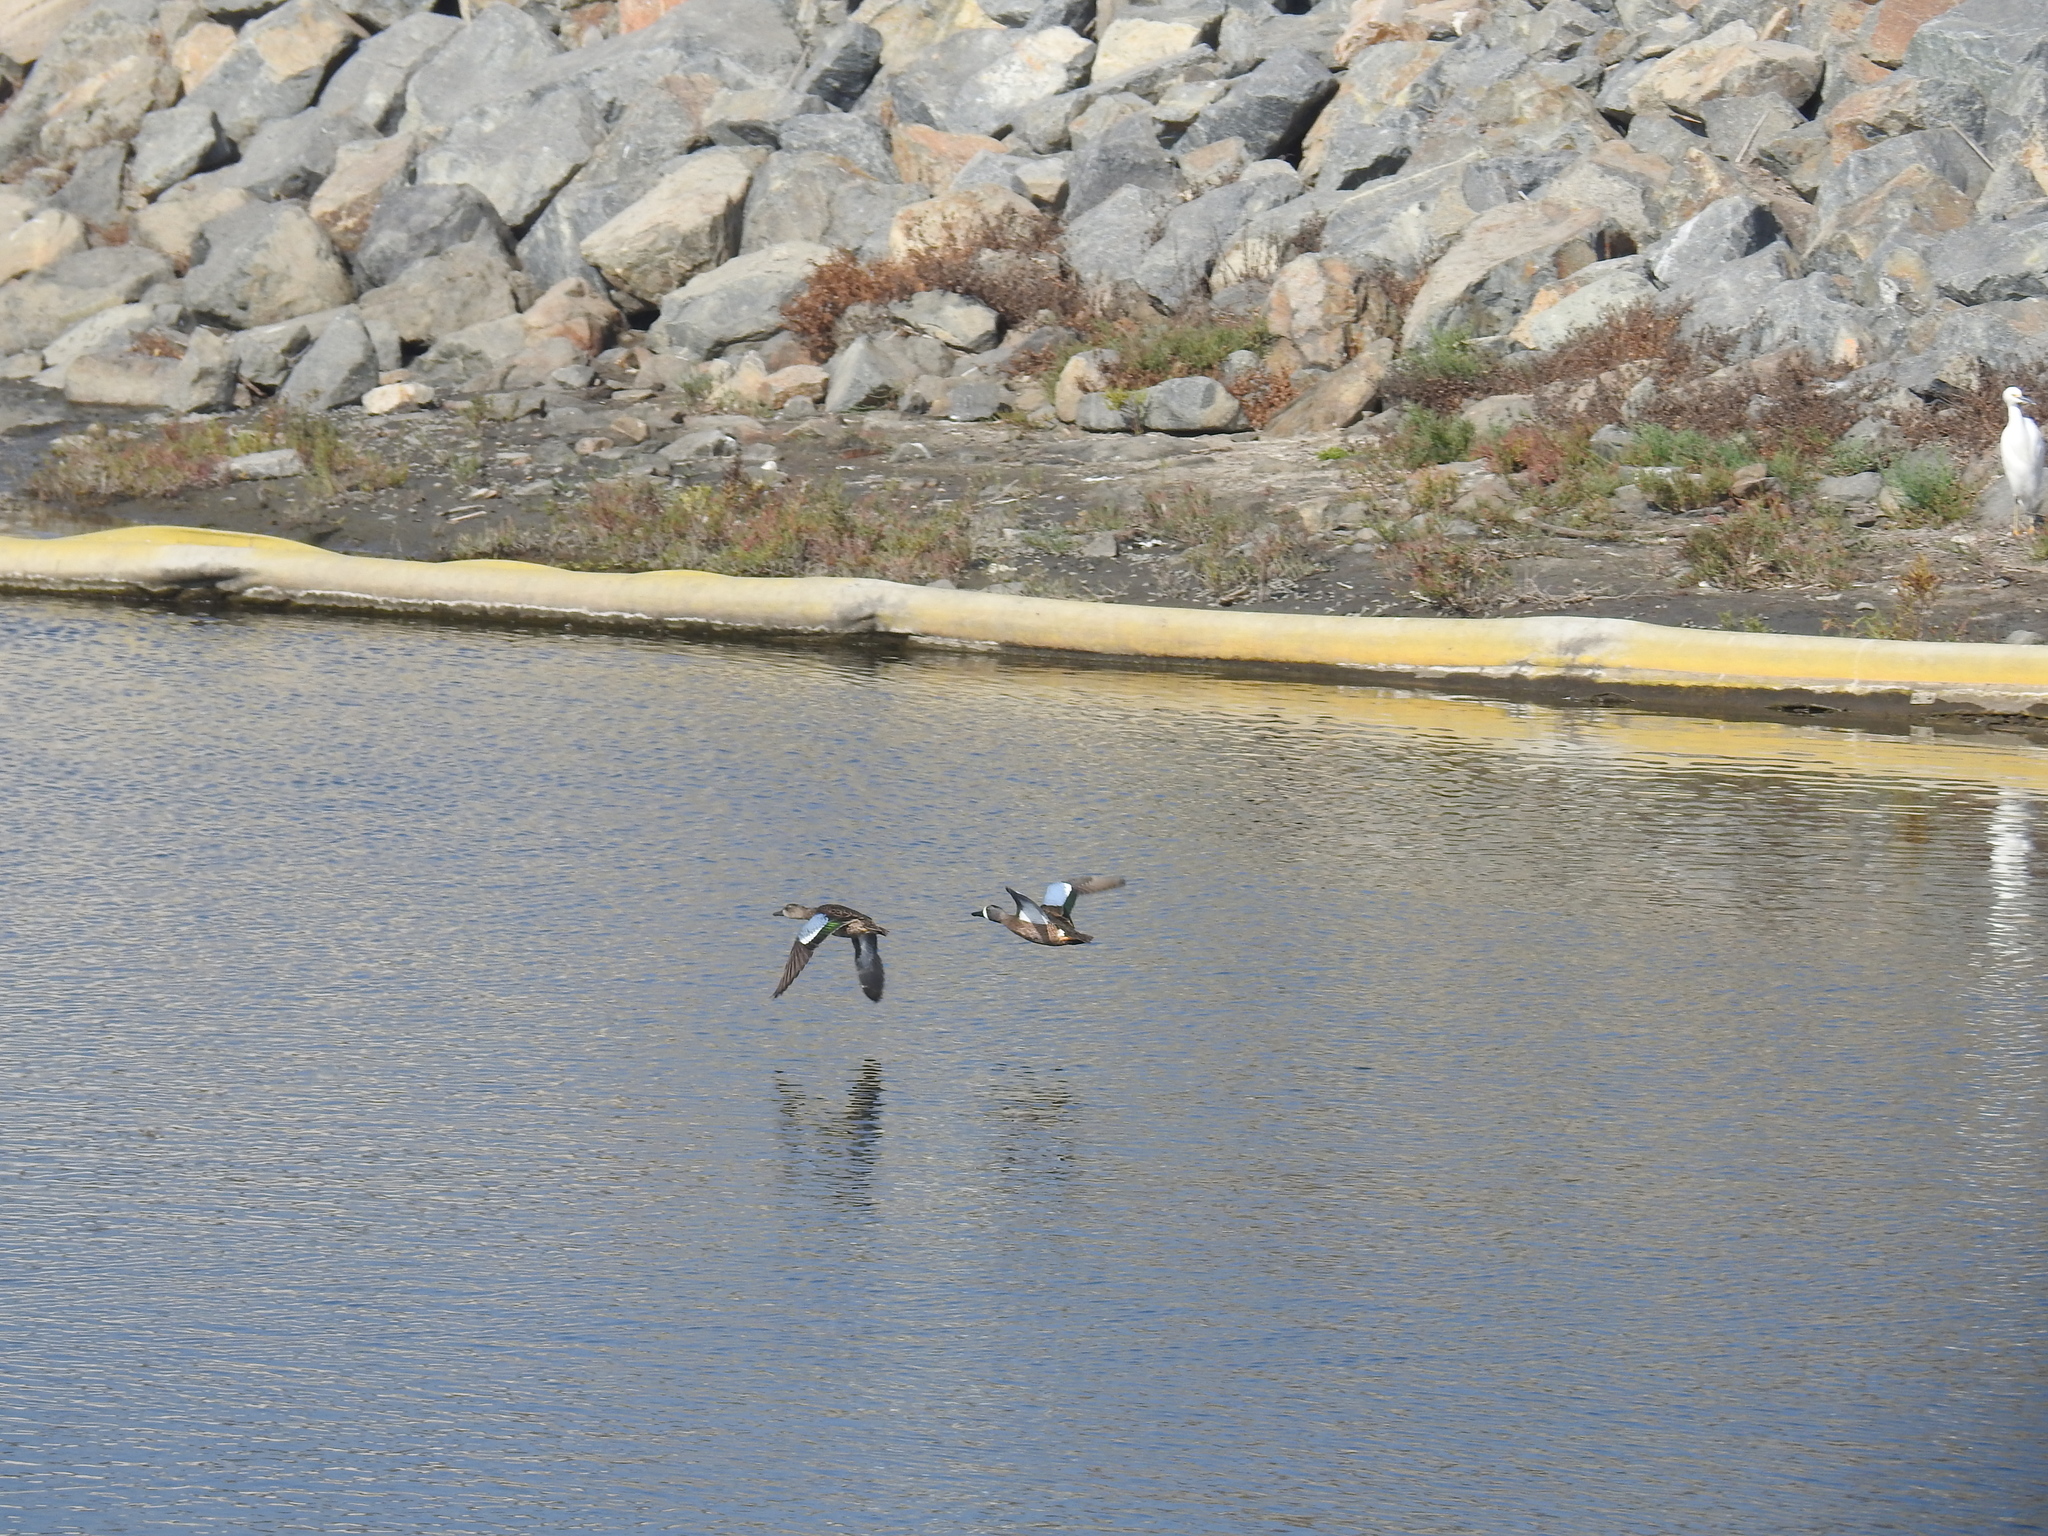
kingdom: Animalia
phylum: Chordata
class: Aves
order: Anseriformes
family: Anatidae
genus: Spatula
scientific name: Spatula discors
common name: Blue-winged teal
